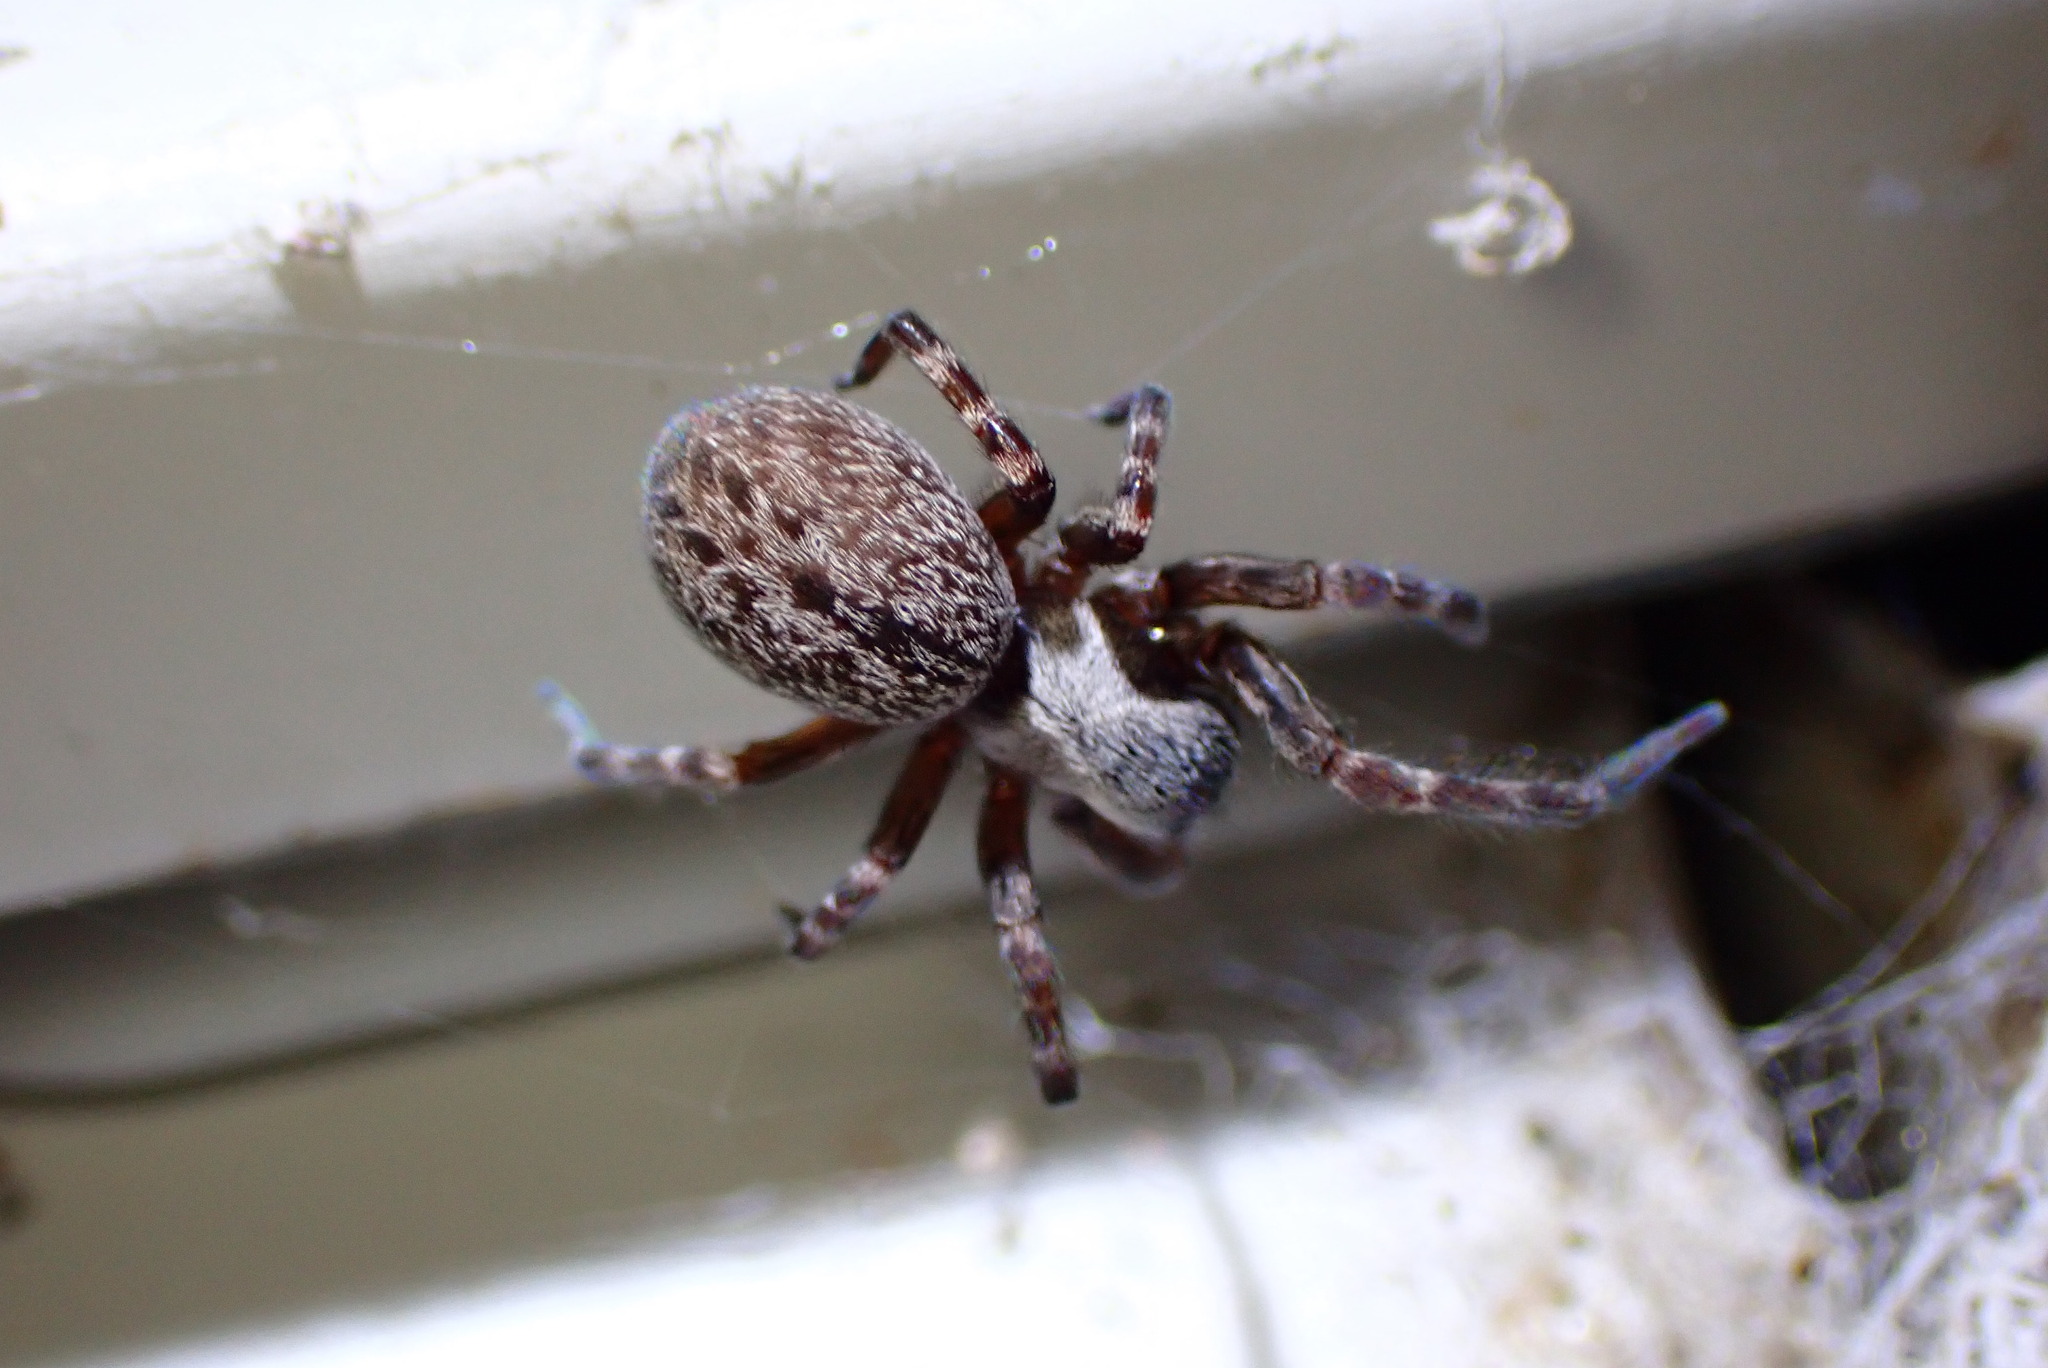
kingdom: Animalia
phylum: Arthropoda
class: Arachnida
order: Araneae
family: Desidae
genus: Badumna
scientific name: Badumna longinqua
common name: Gray house spider
